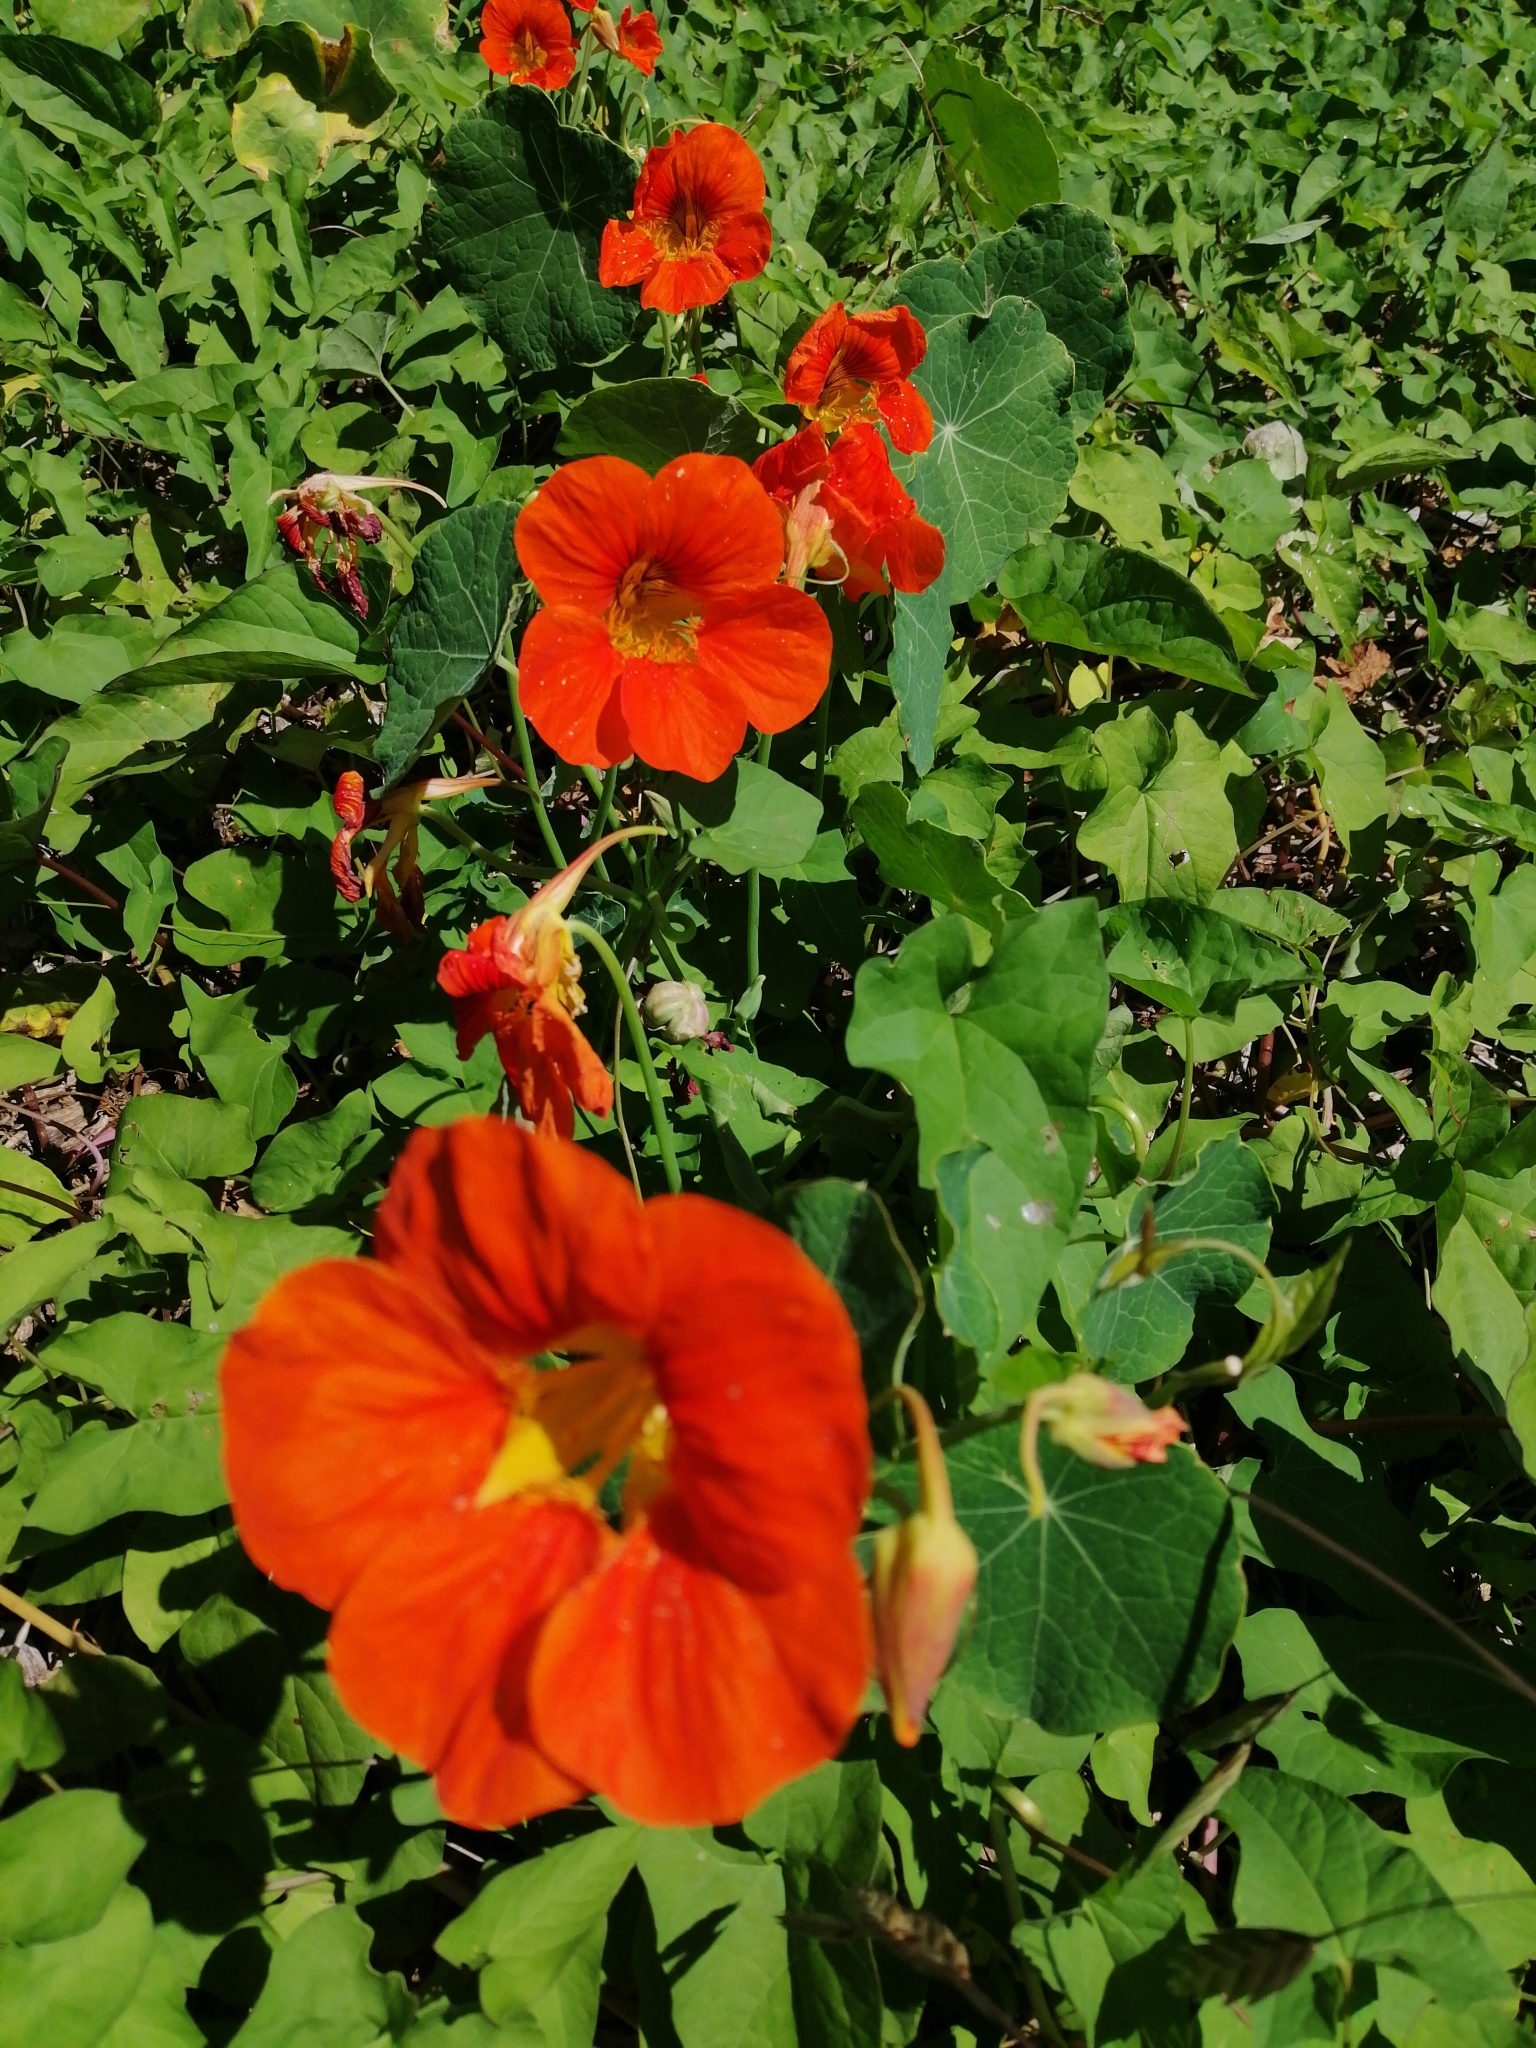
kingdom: Plantae
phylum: Tracheophyta
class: Magnoliopsida
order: Brassicales
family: Tropaeolaceae
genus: Tropaeolum
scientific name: Tropaeolum majus
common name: Nasturtium
